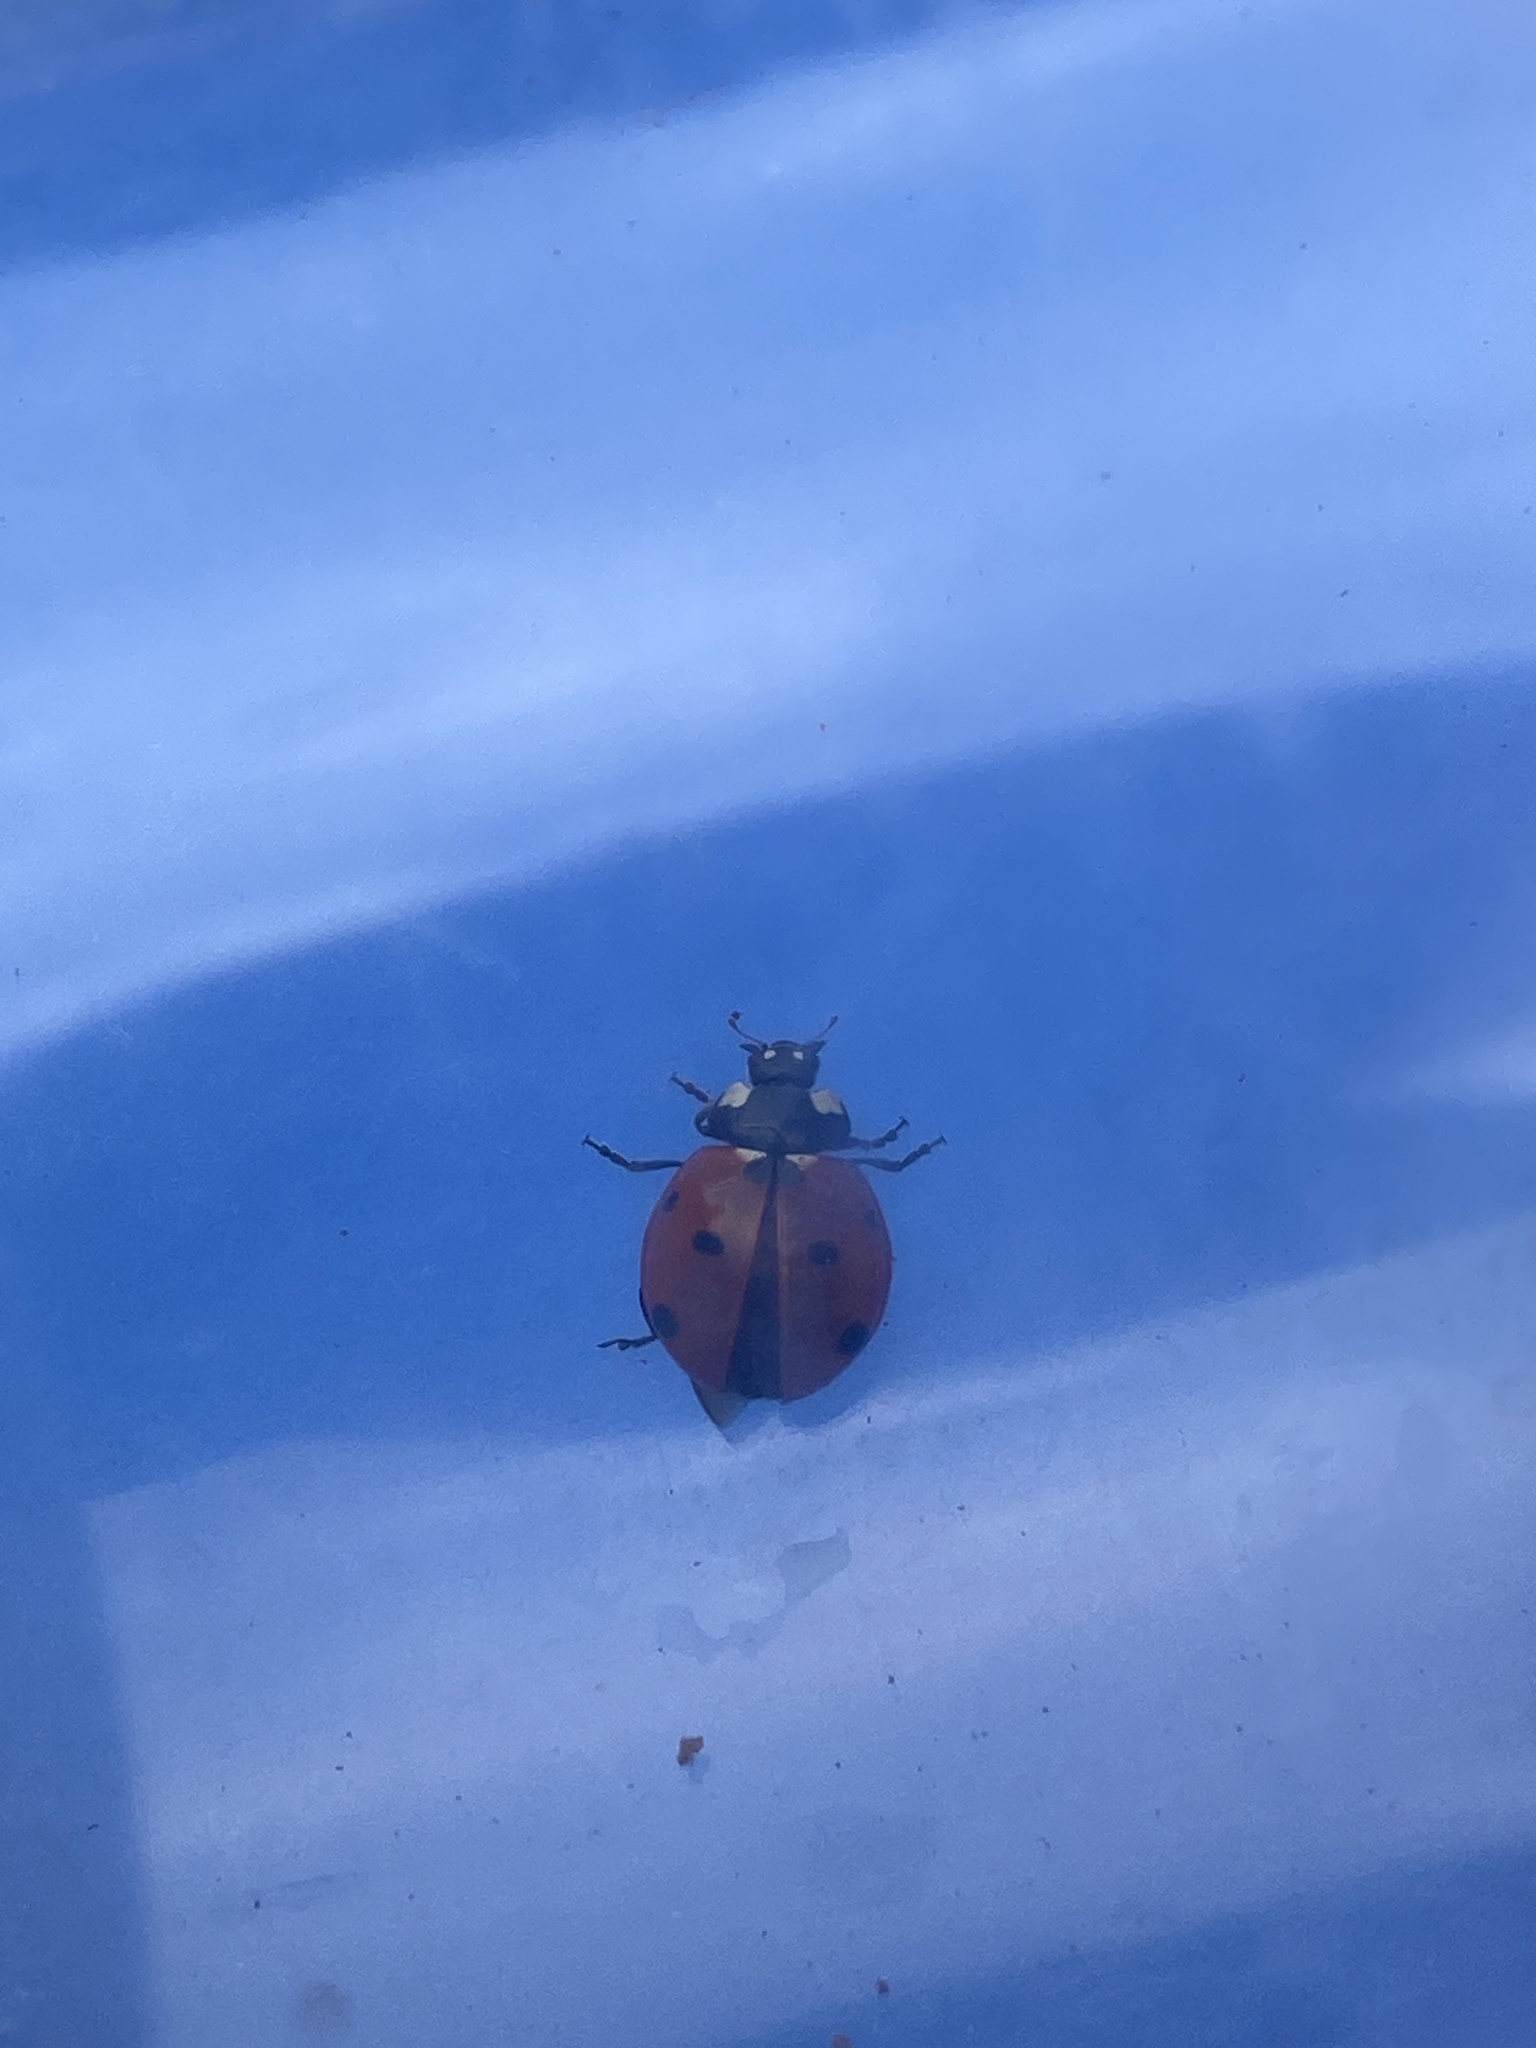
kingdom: Animalia
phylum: Arthropoda
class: Insecta
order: Coleoptera
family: Coccinellidae
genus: Coccinella
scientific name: Coccinella septempunctata
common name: Sevenspotted lady beetle
